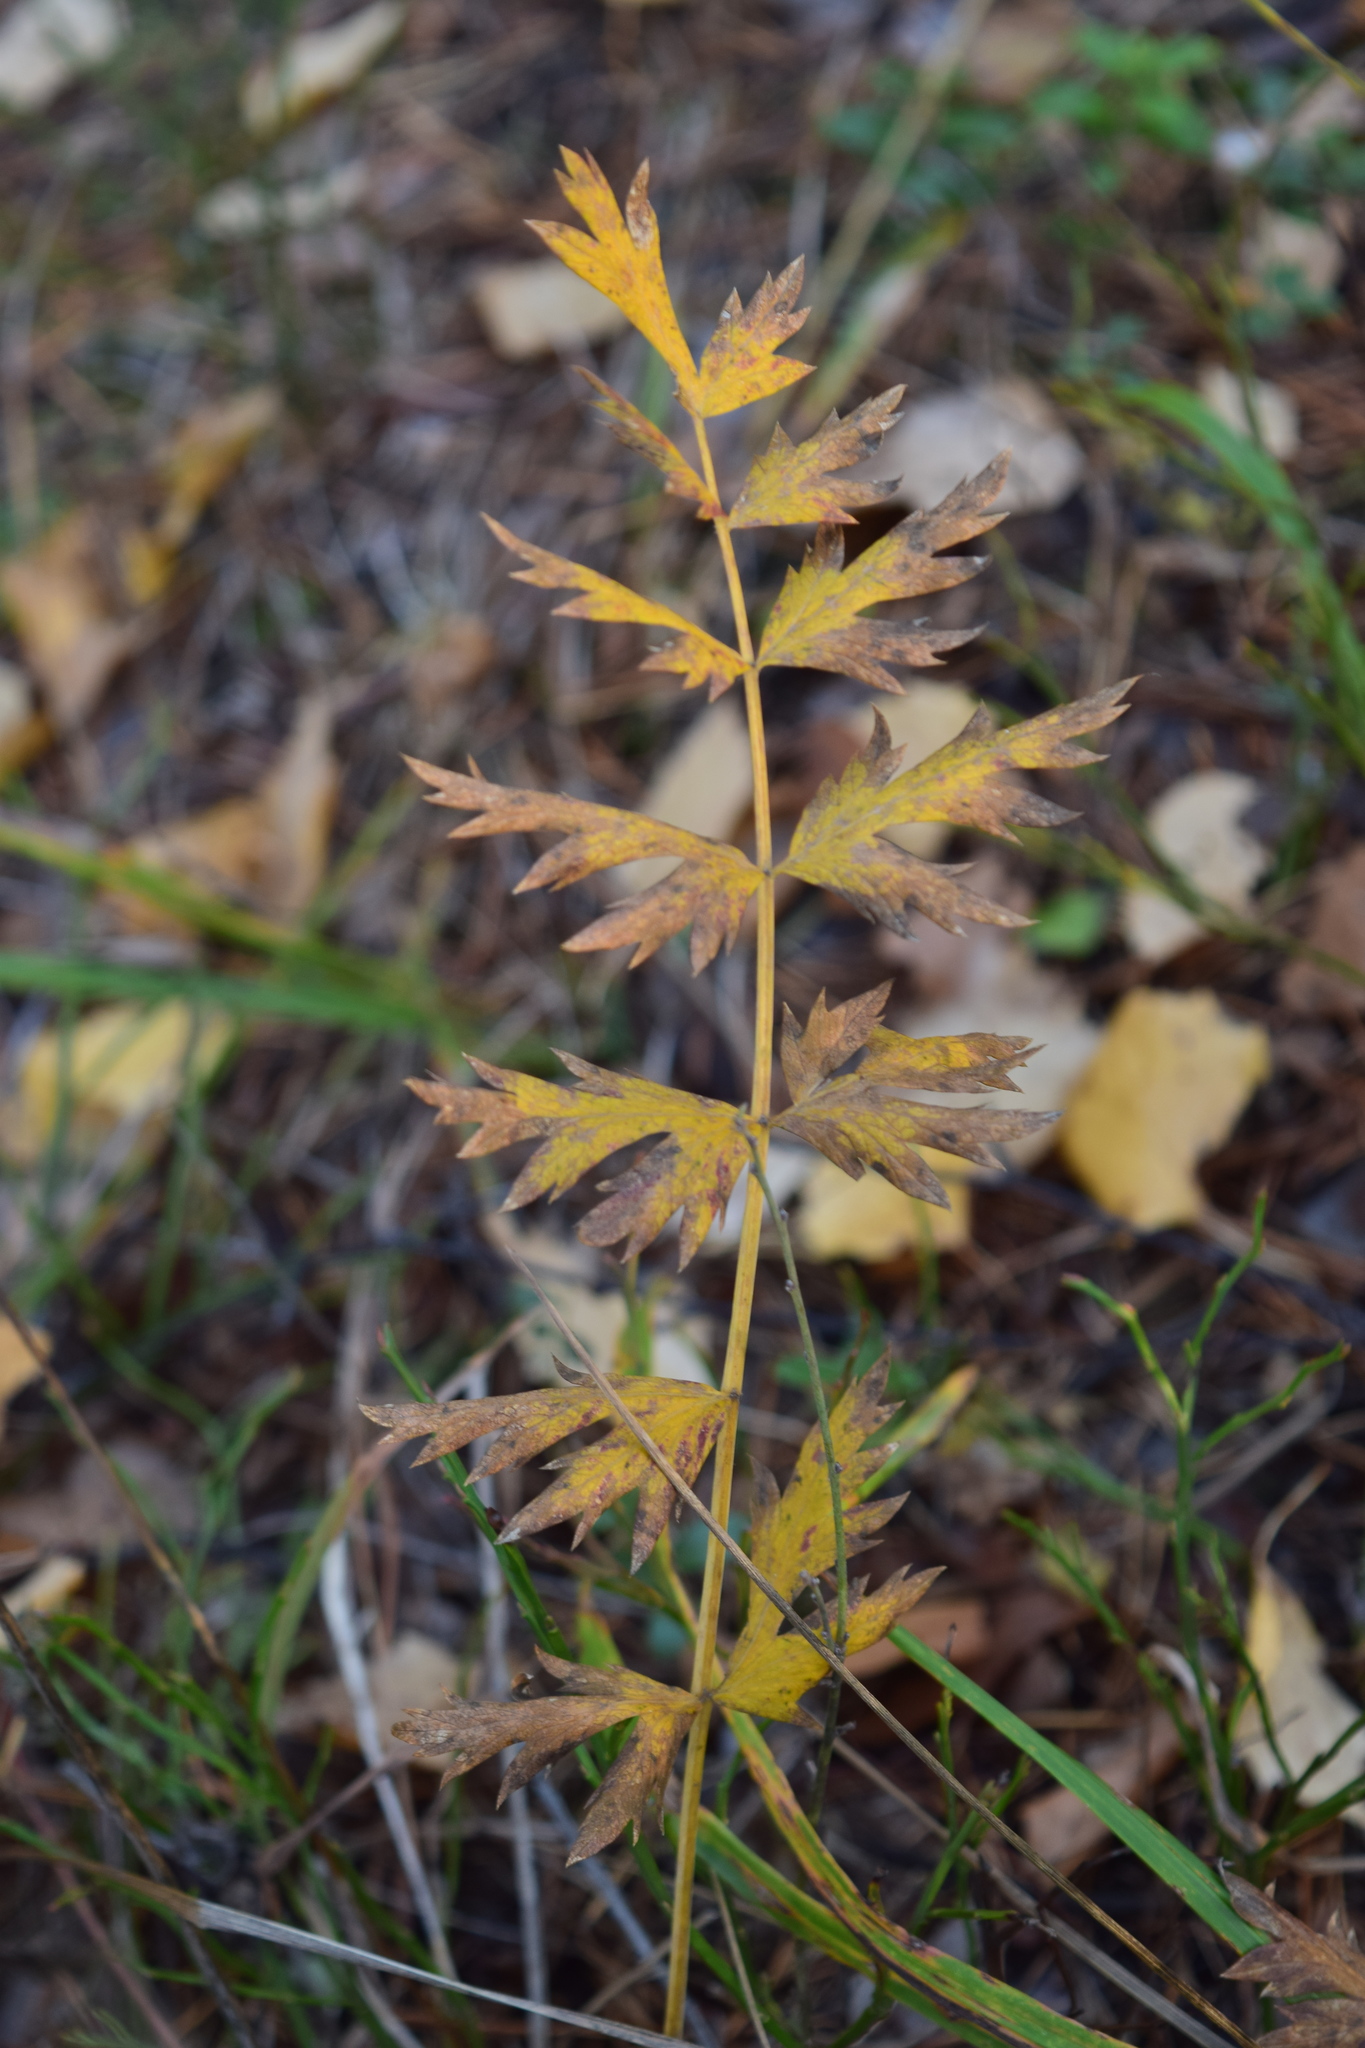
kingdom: Plantae
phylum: Tracheophyta
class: Magnoliopsida
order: Apiales
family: Apiaceae
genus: Seseli
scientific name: Seseli krylovii
